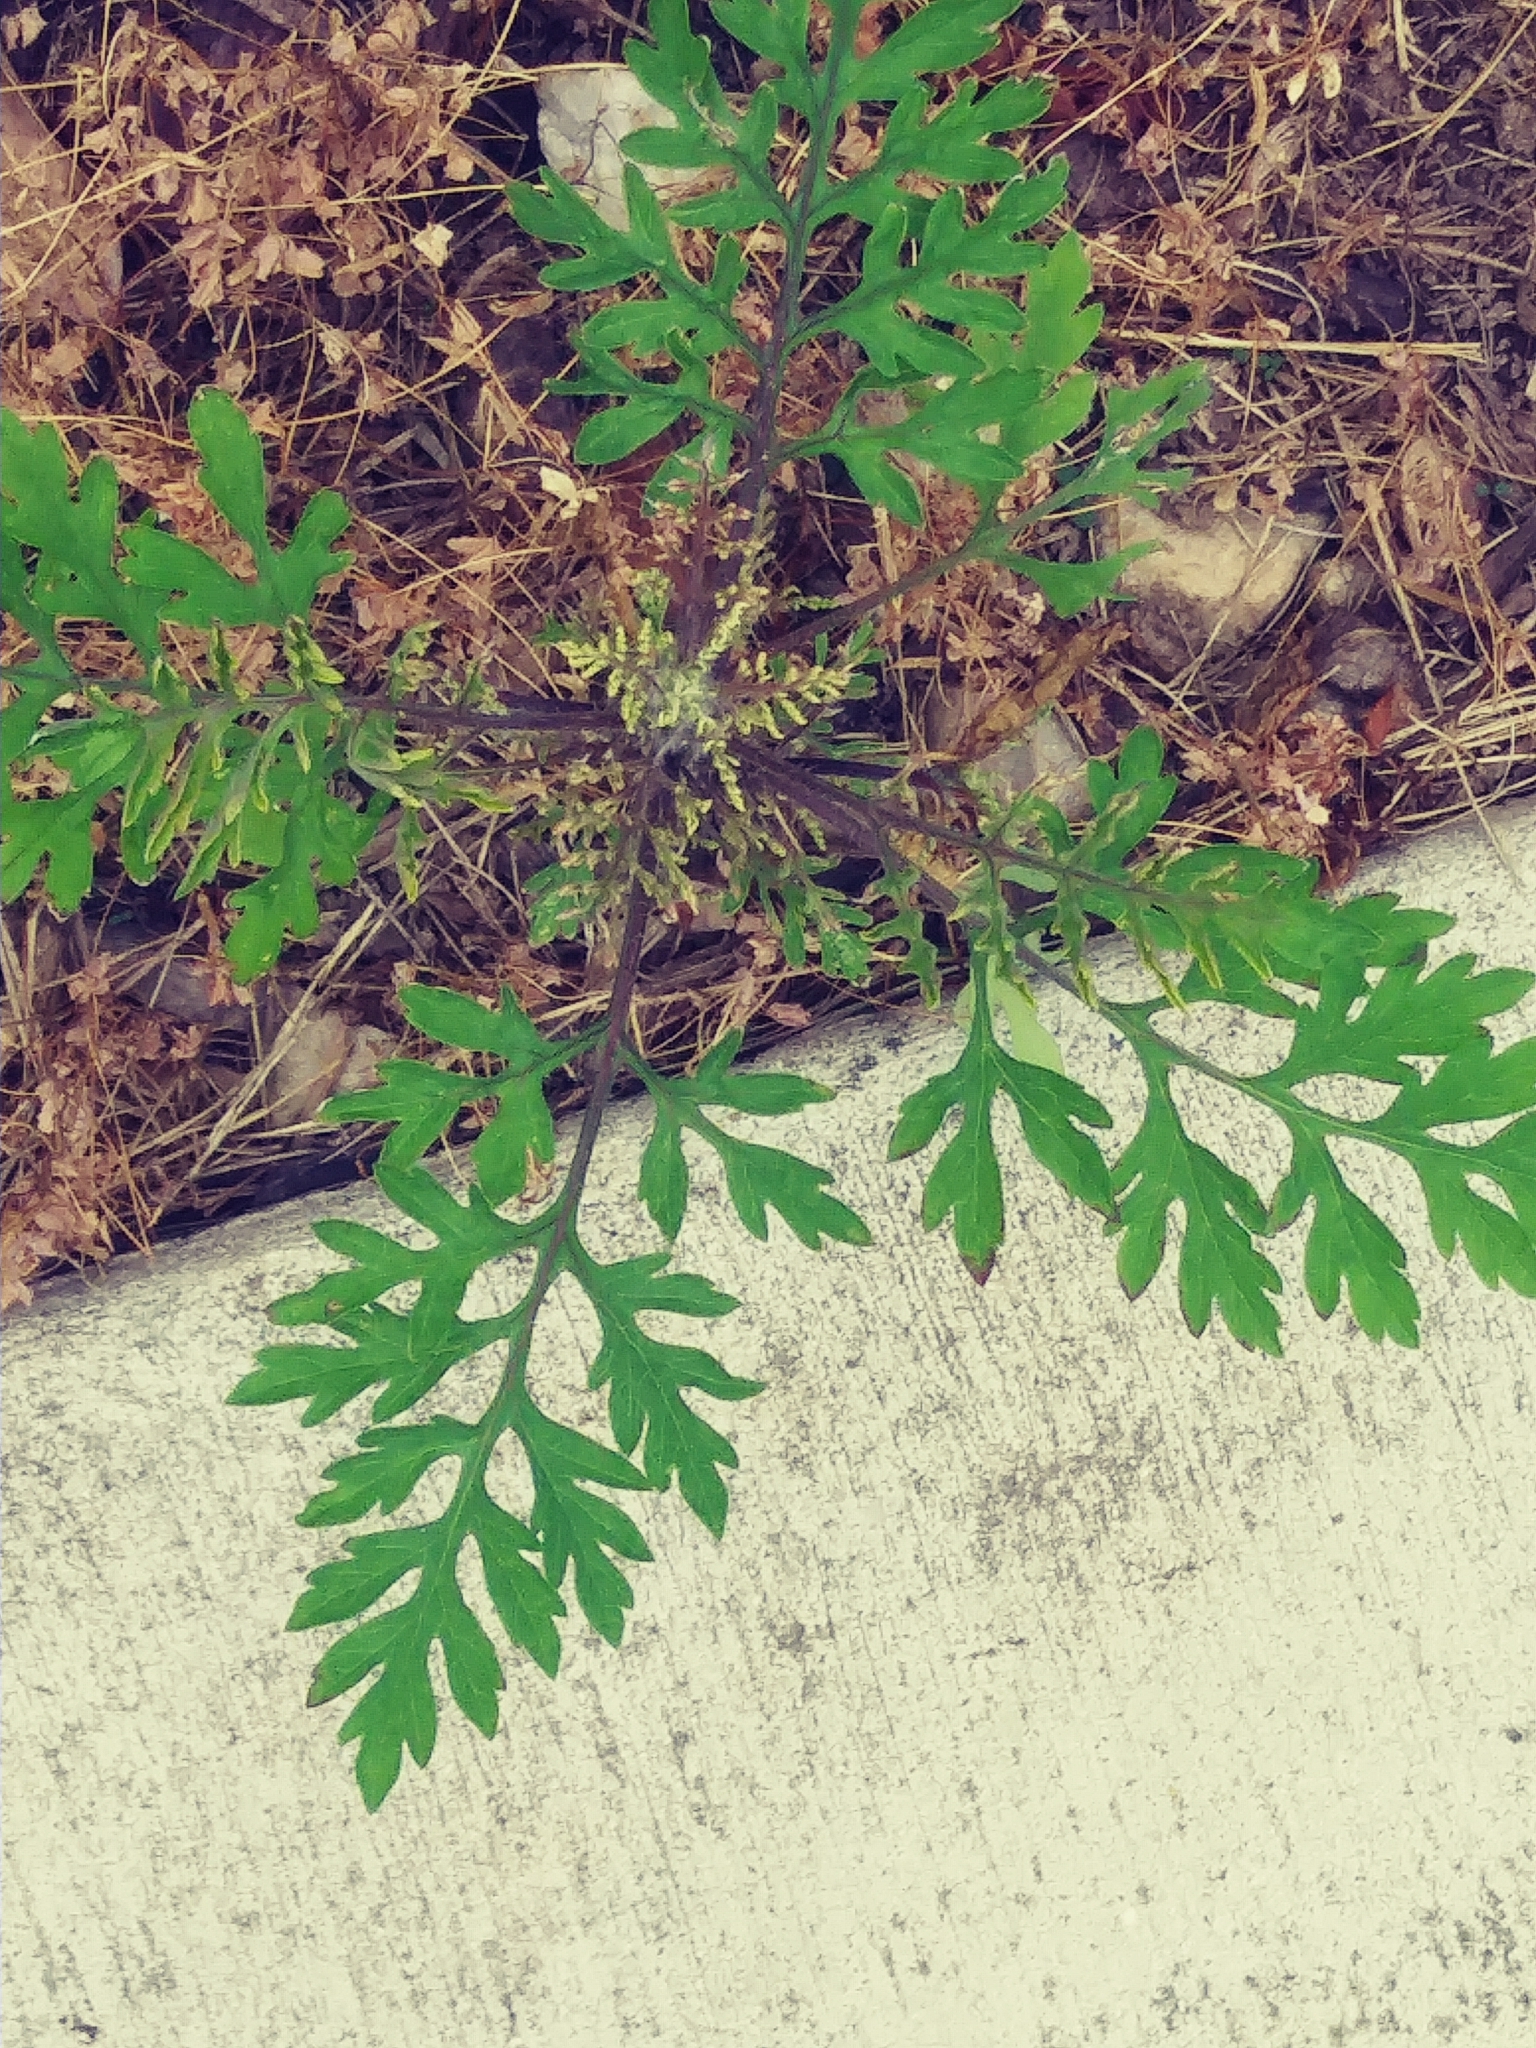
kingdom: Plantae
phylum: Tracheophyta
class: Magnoliopsida
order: Asterales
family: Asteraceae
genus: Ambrosia
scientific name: Ambrosia artemisiifolia
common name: Annual ragweed
